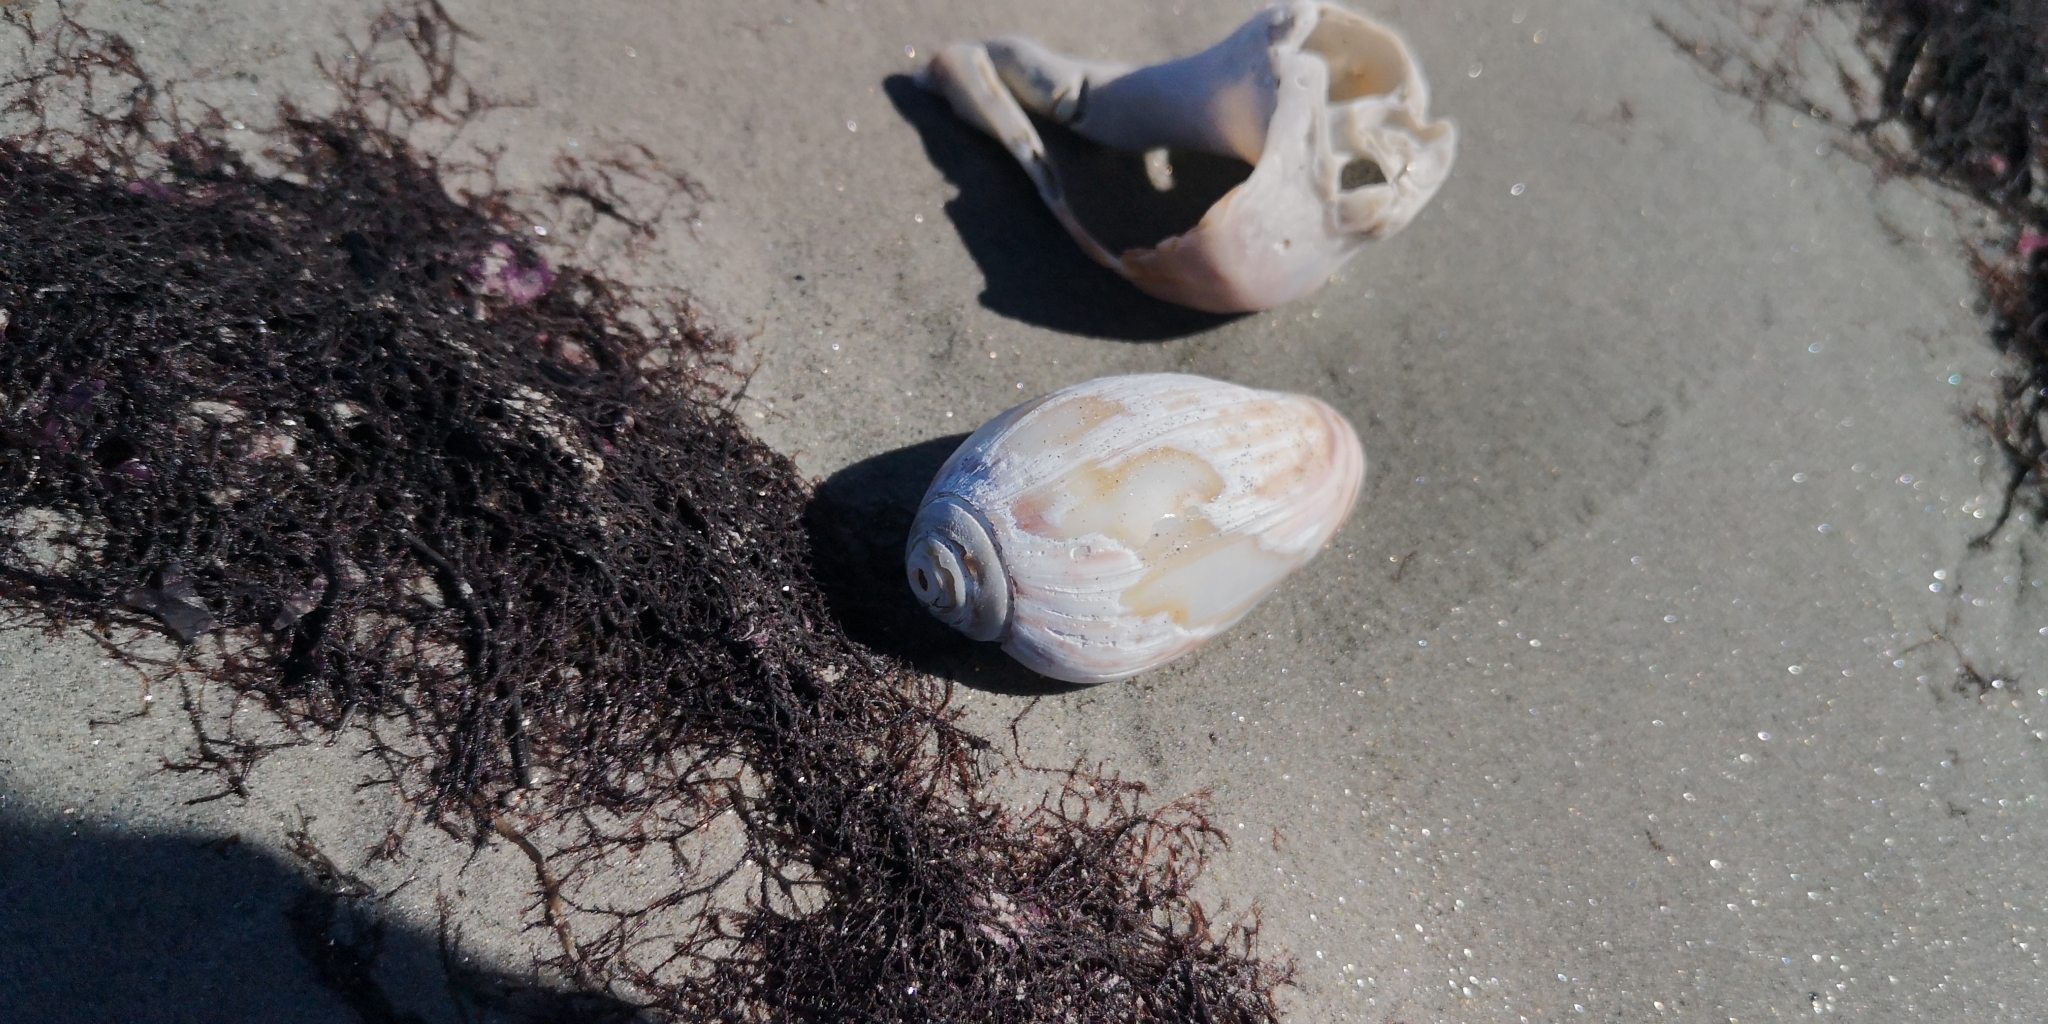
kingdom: Animalia
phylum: Mollusca
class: Gastropoda
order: Neogastropoda
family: Olividae
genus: Felicioliva
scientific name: Felicioliva peruviana
